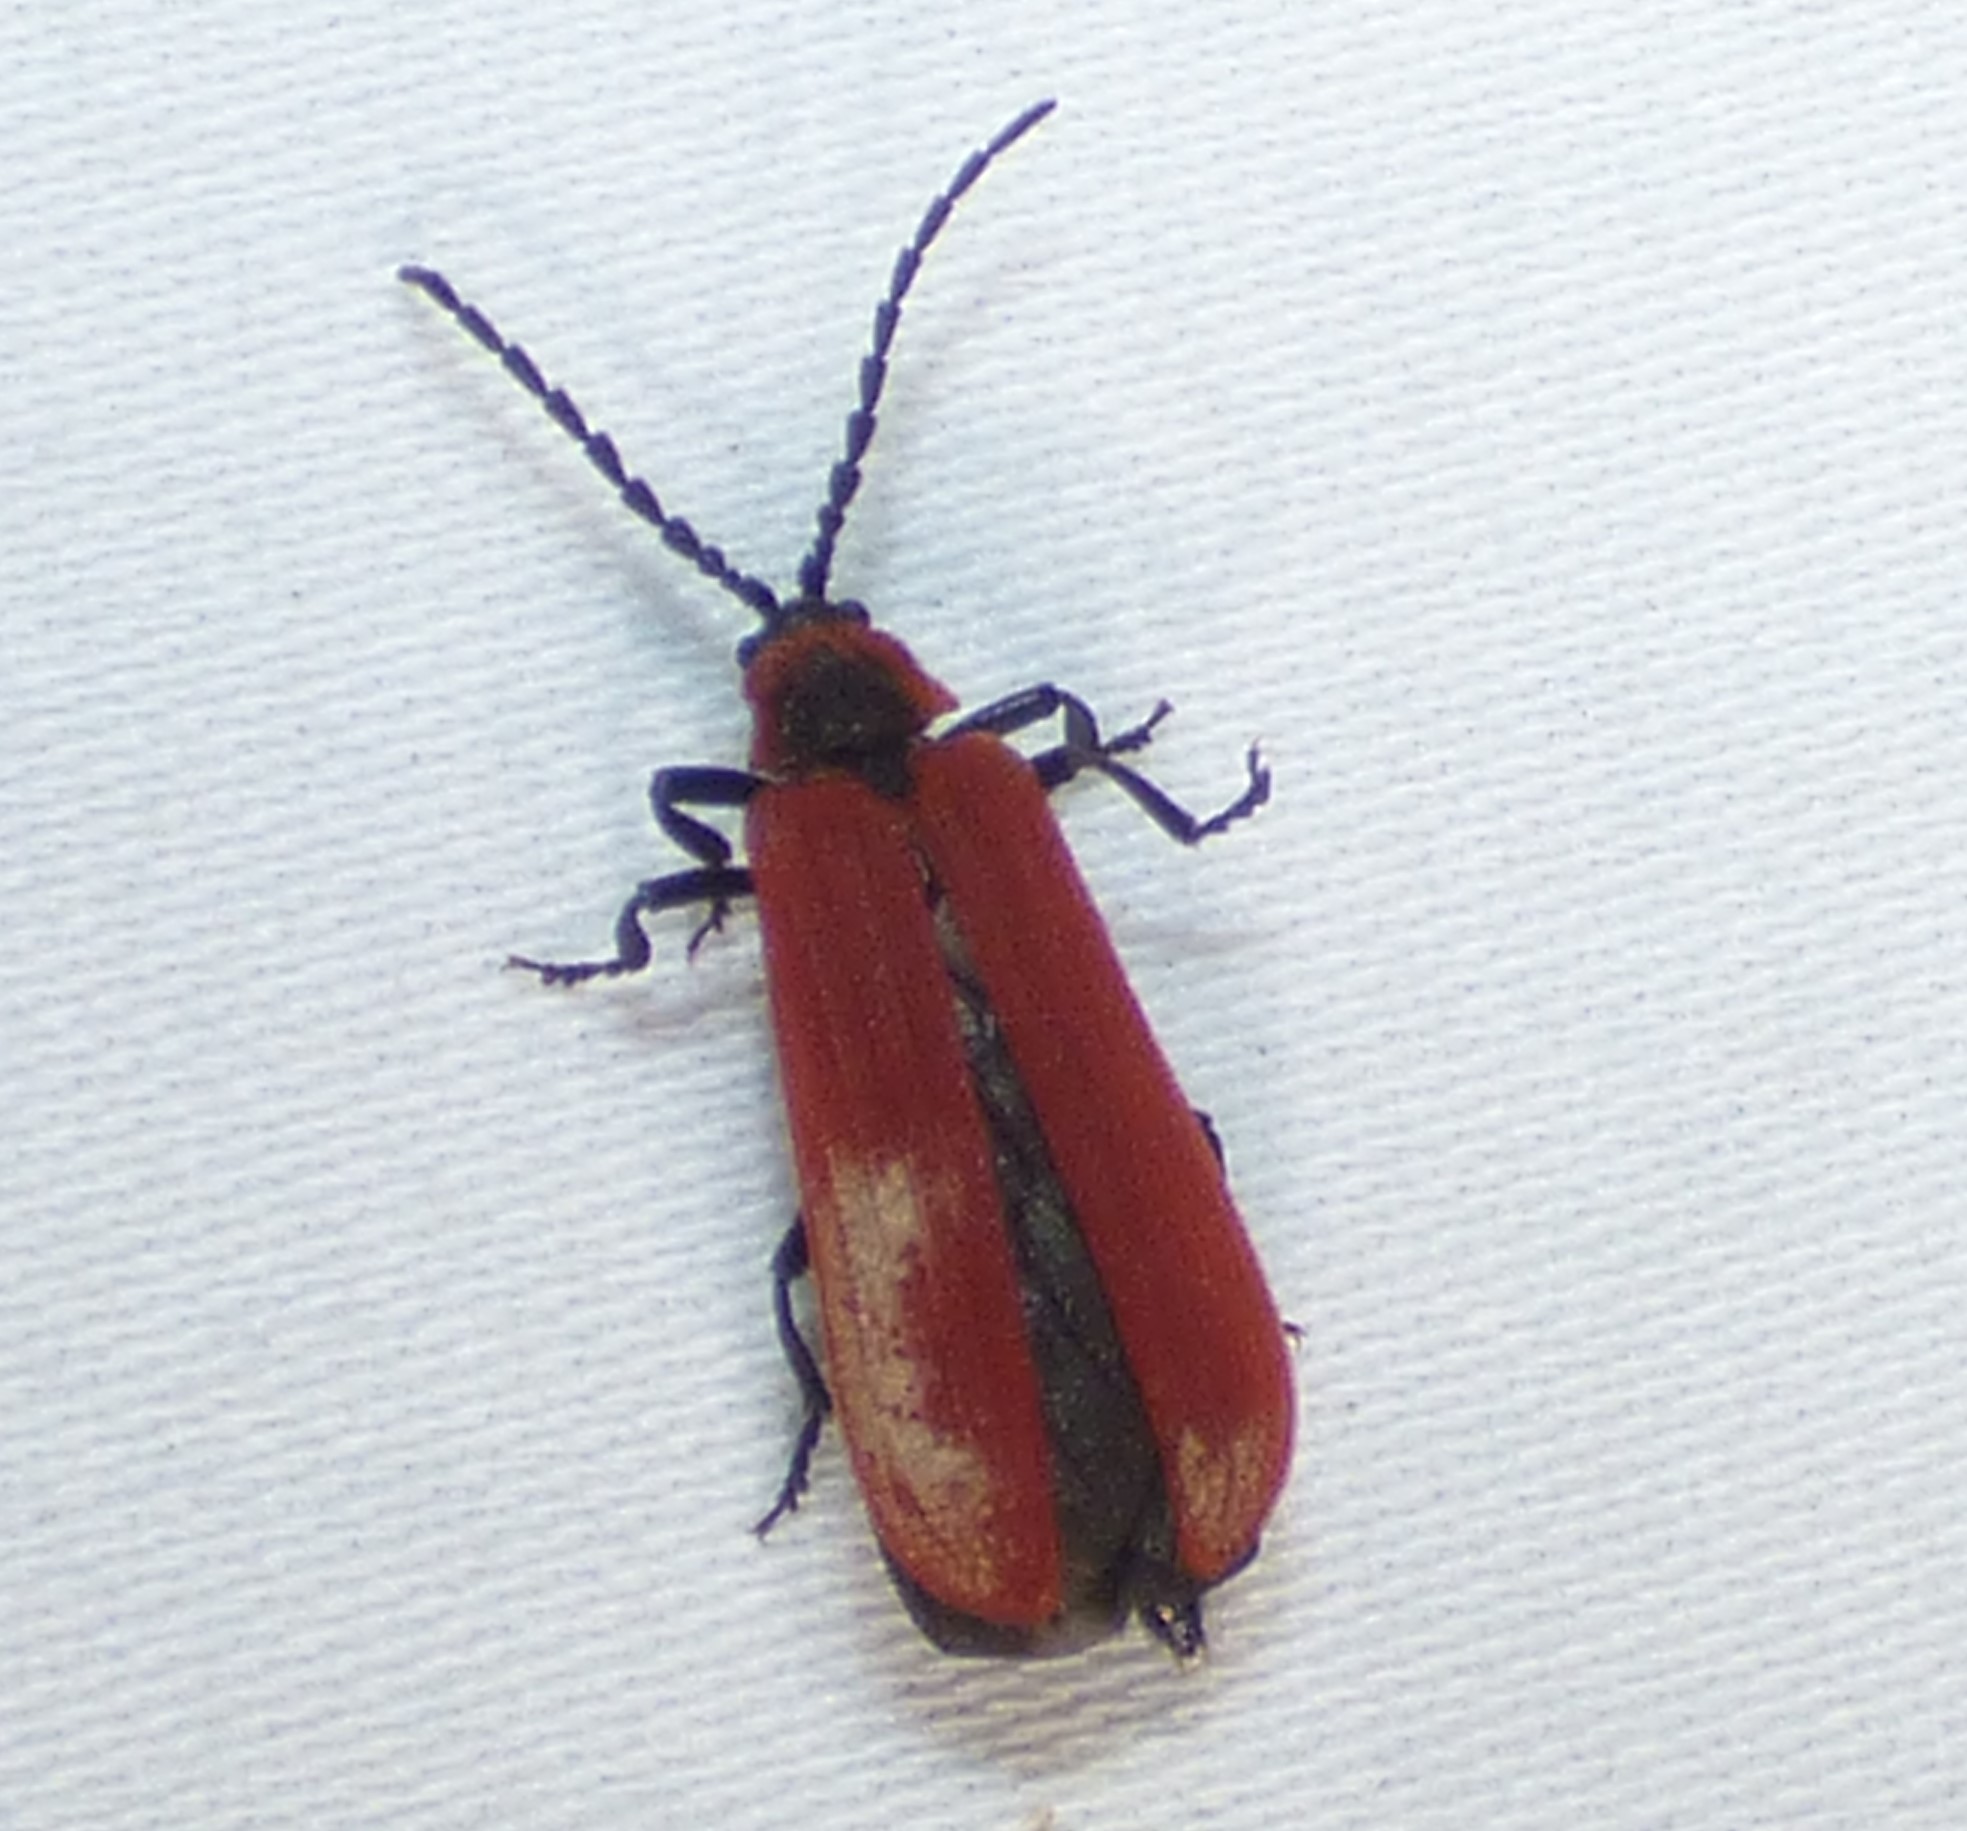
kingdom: Animalia
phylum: Arthropoda
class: Insecta
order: Coleoptera
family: Lycidae
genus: Dictyoptera
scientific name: Dictyoptera aurora
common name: Golden net-winged beetle
